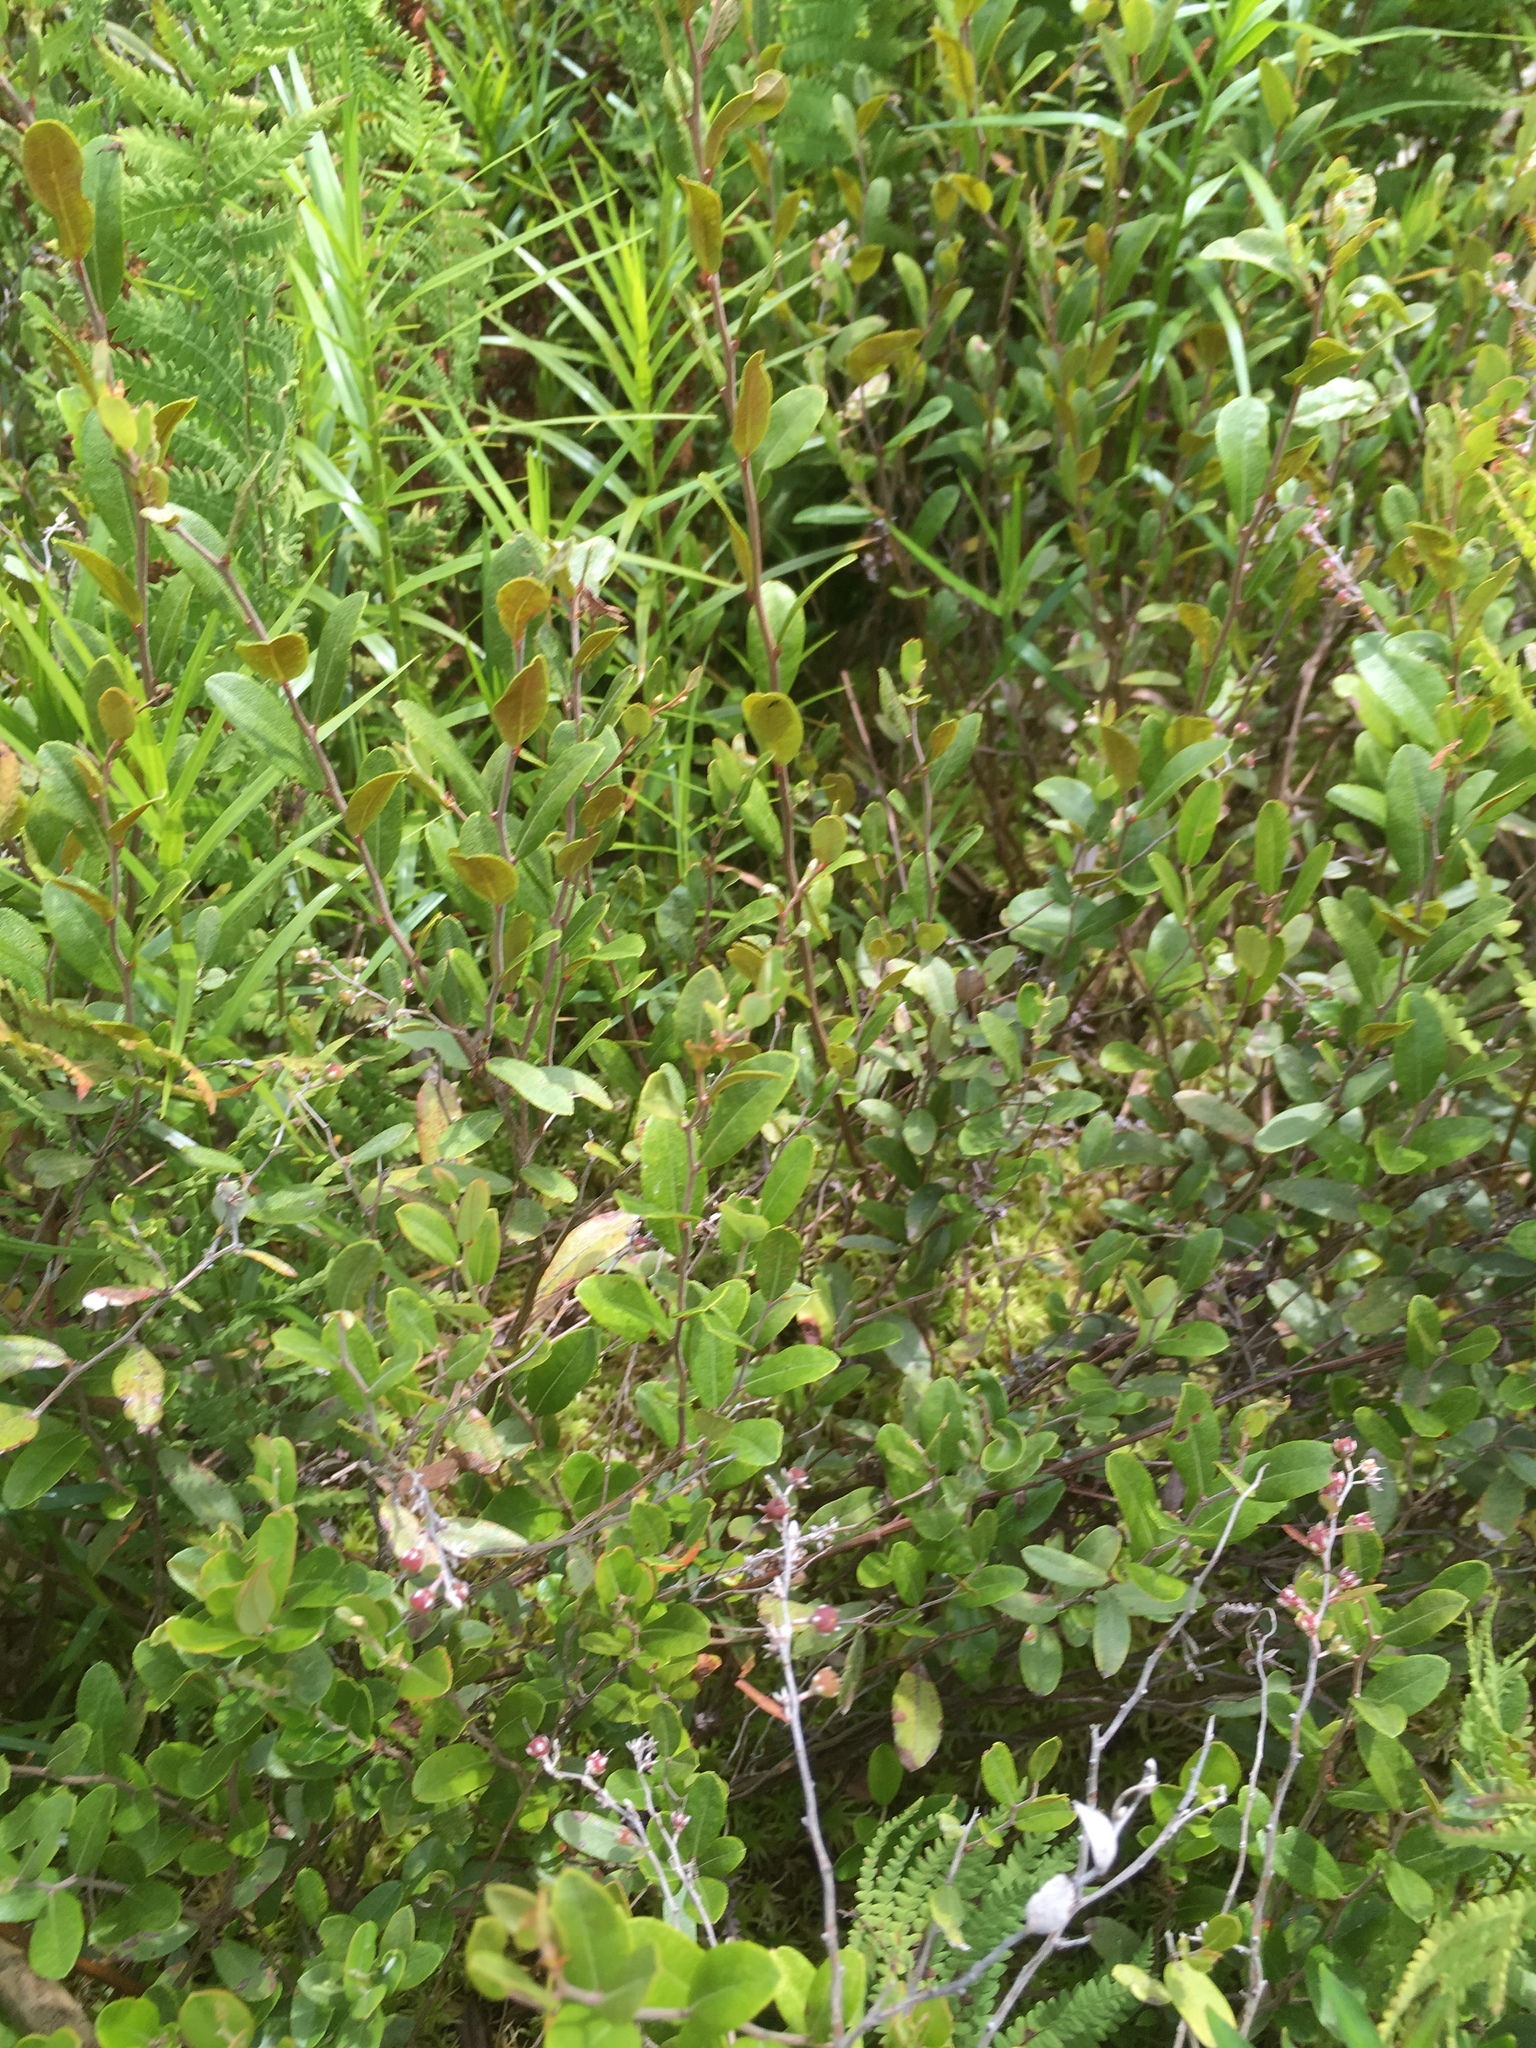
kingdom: Plantae
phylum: Tracheophyta
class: Magnoliopsida
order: Ericales
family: Ericaceae
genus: Chamaedaphne
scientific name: Chamaedaphne calyculata
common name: Leatherleaf
